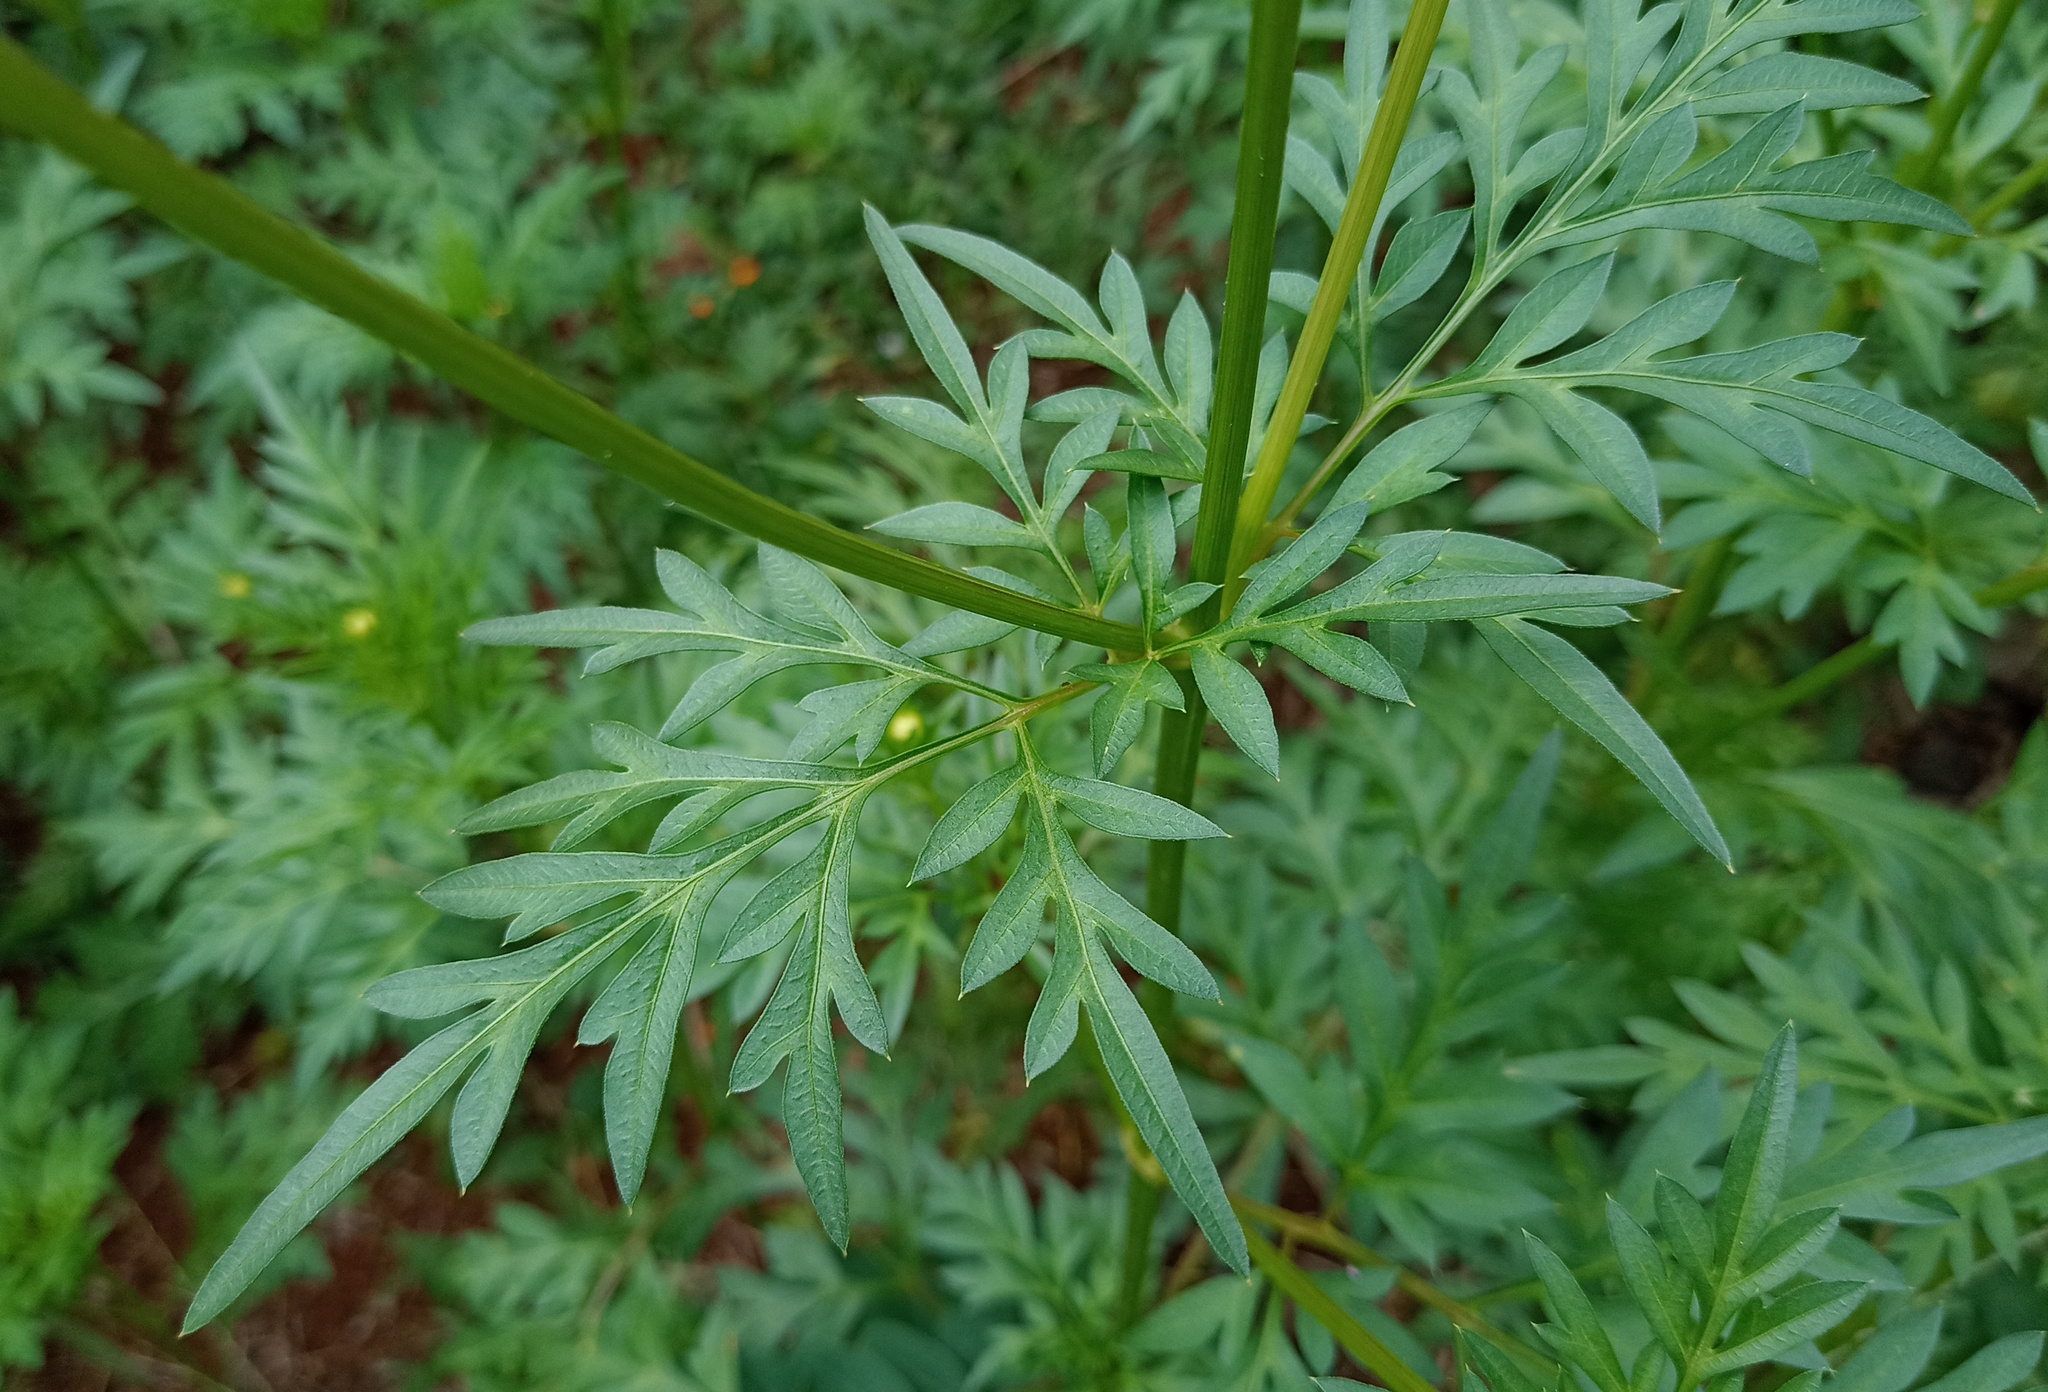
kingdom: Plantae
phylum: Tracheophyta
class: Magnoliopsida
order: Asterales
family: Asteraceae
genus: Cosmos
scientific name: Cosmos sulphureus
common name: Sulphur cosmos
